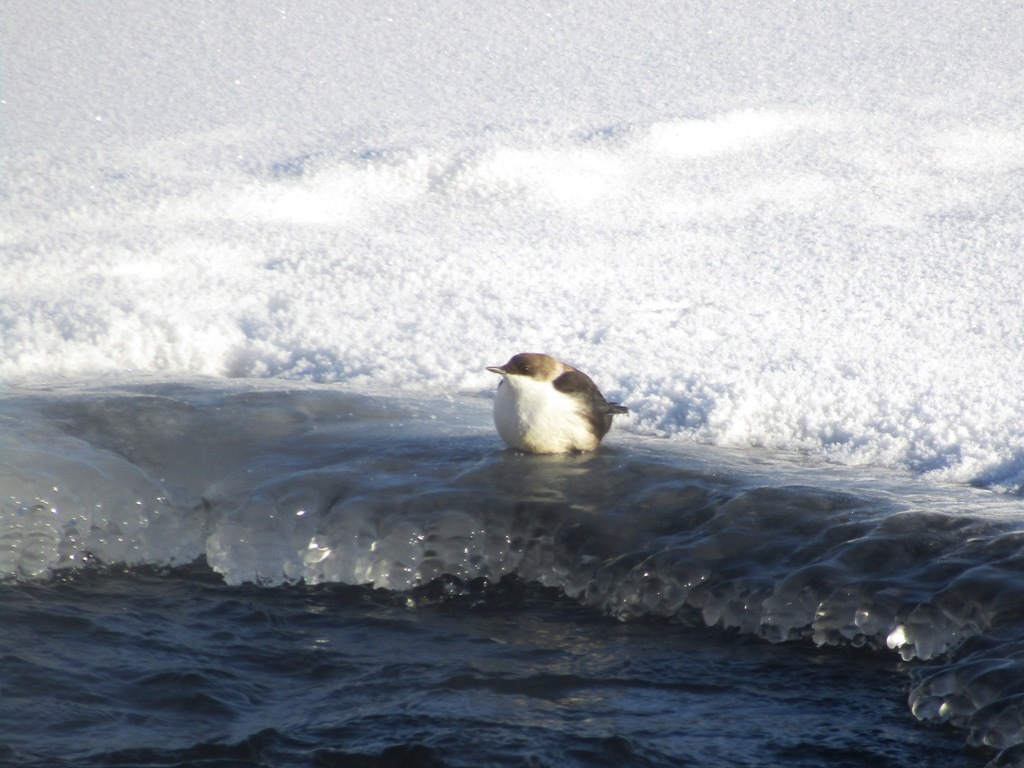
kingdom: Animalia
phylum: Chordata
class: Aves
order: Passeriformes
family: Cinclidae
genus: Cinclus
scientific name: Cinclus cinclus
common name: White-throated dipper
